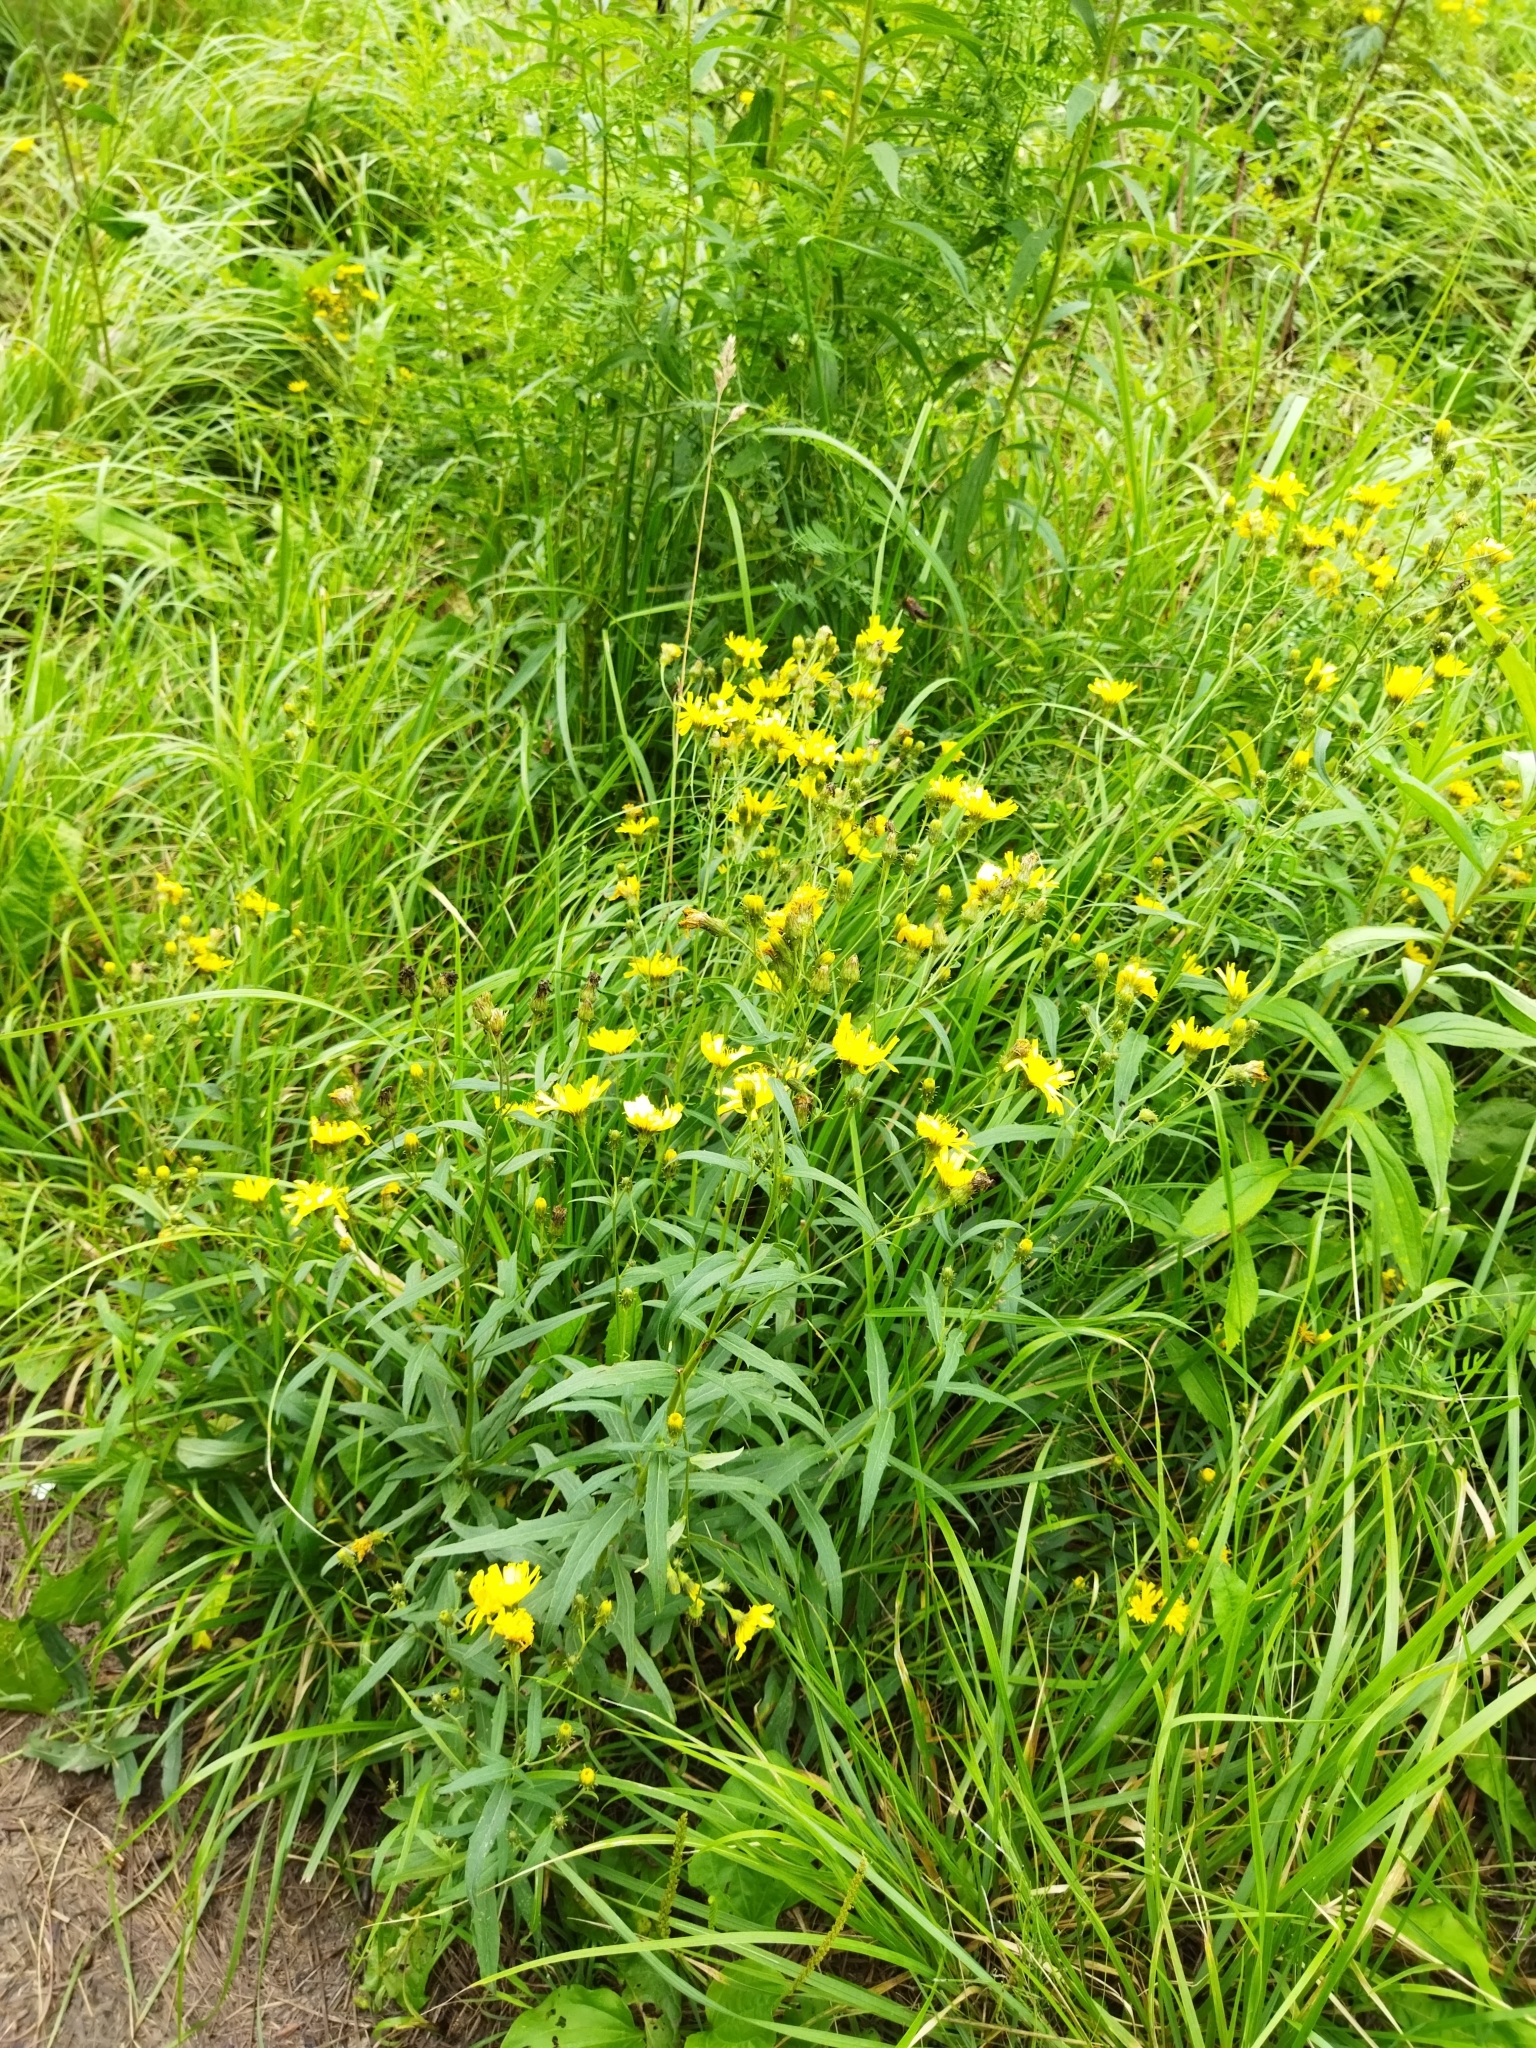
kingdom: Plantae
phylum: Tracheophyta
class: Magnoliopsida
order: Asterales
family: Asteraceae
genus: Hieracium
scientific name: Hieracium umbellatum
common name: Northern hawkweed
